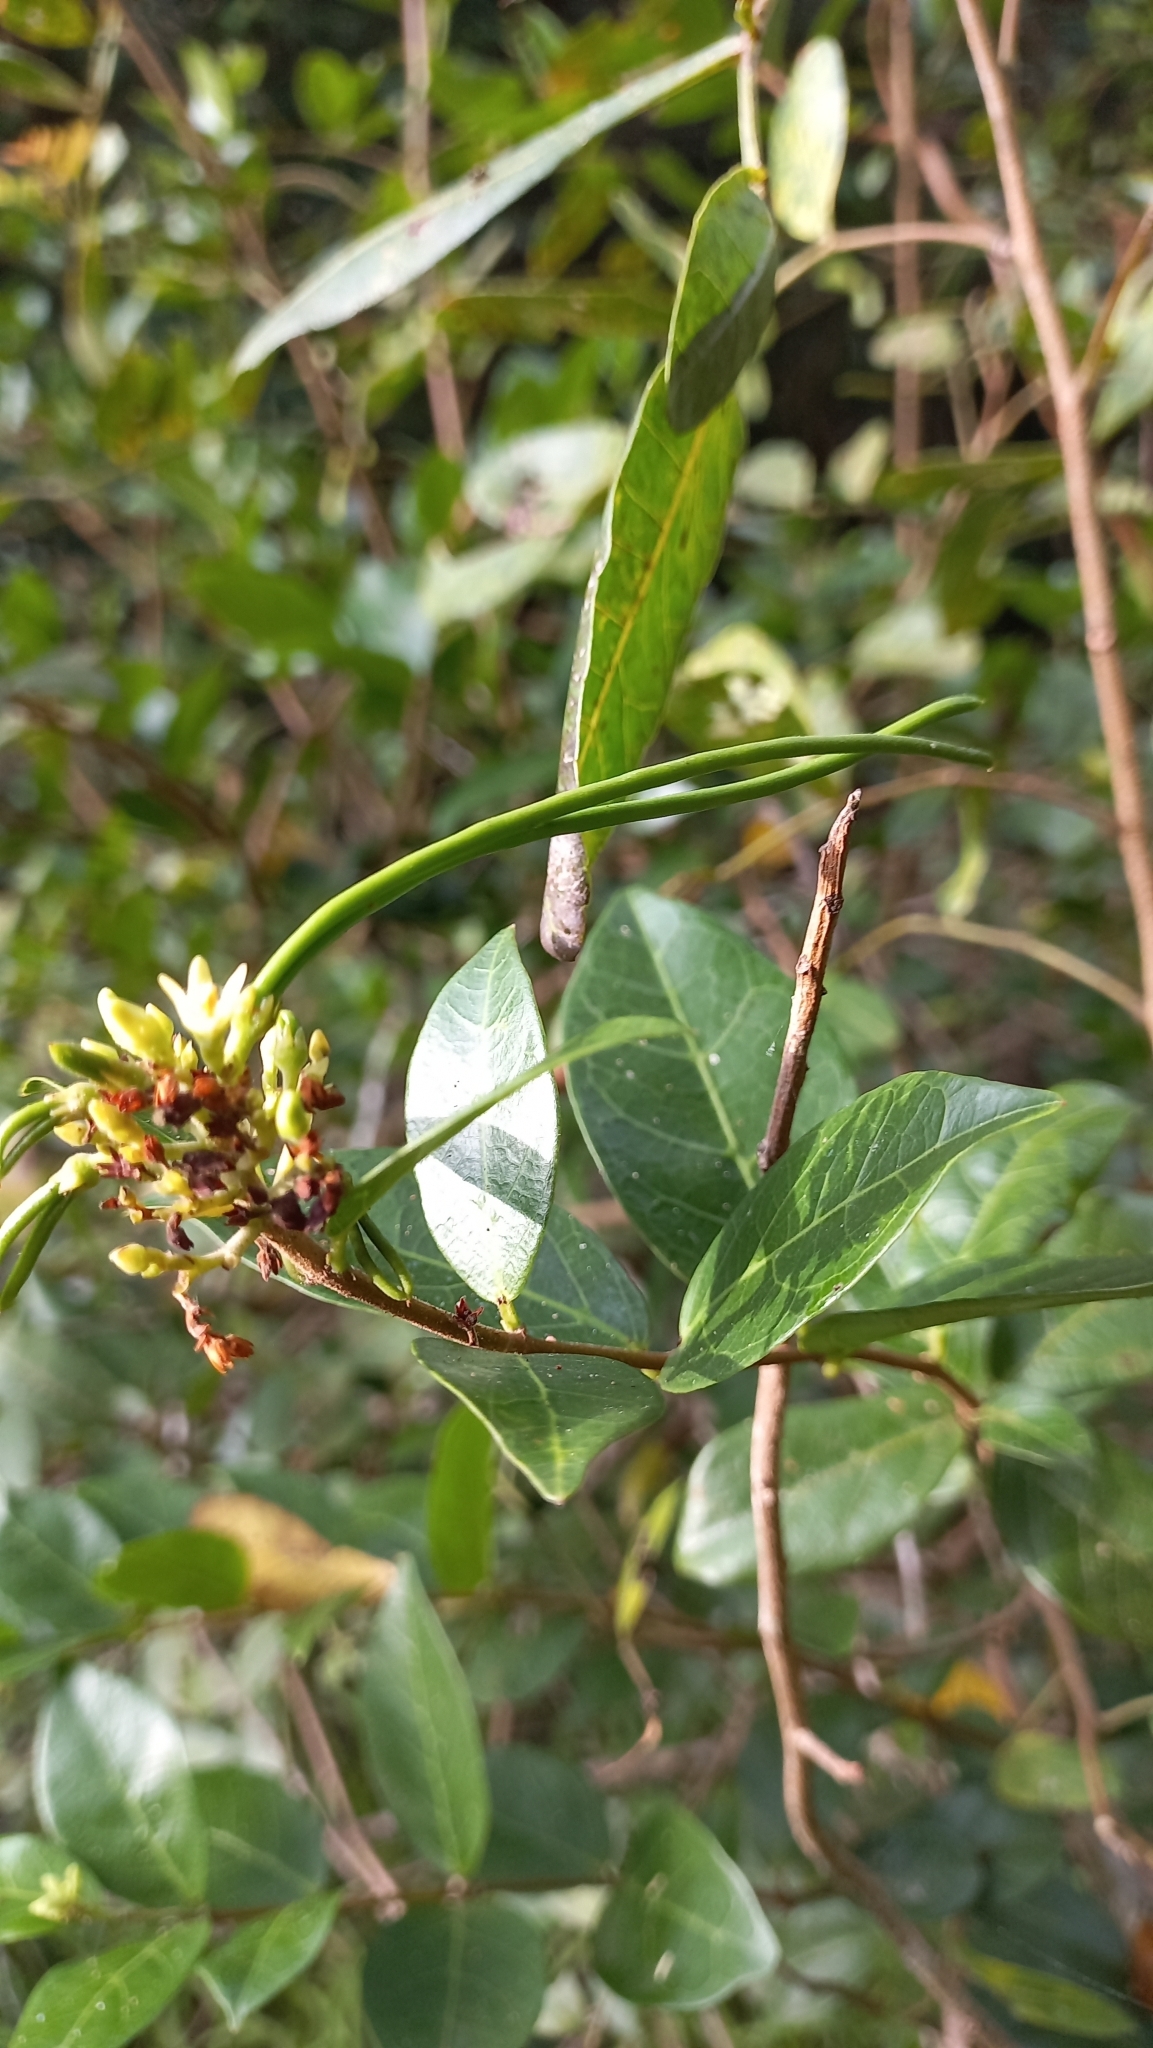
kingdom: Plantae
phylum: Tracheophyta
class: Magnoliopsida
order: Gentianales
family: Apocynaceae
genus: Forsteronia
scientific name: Forsteronia leptocarpa
